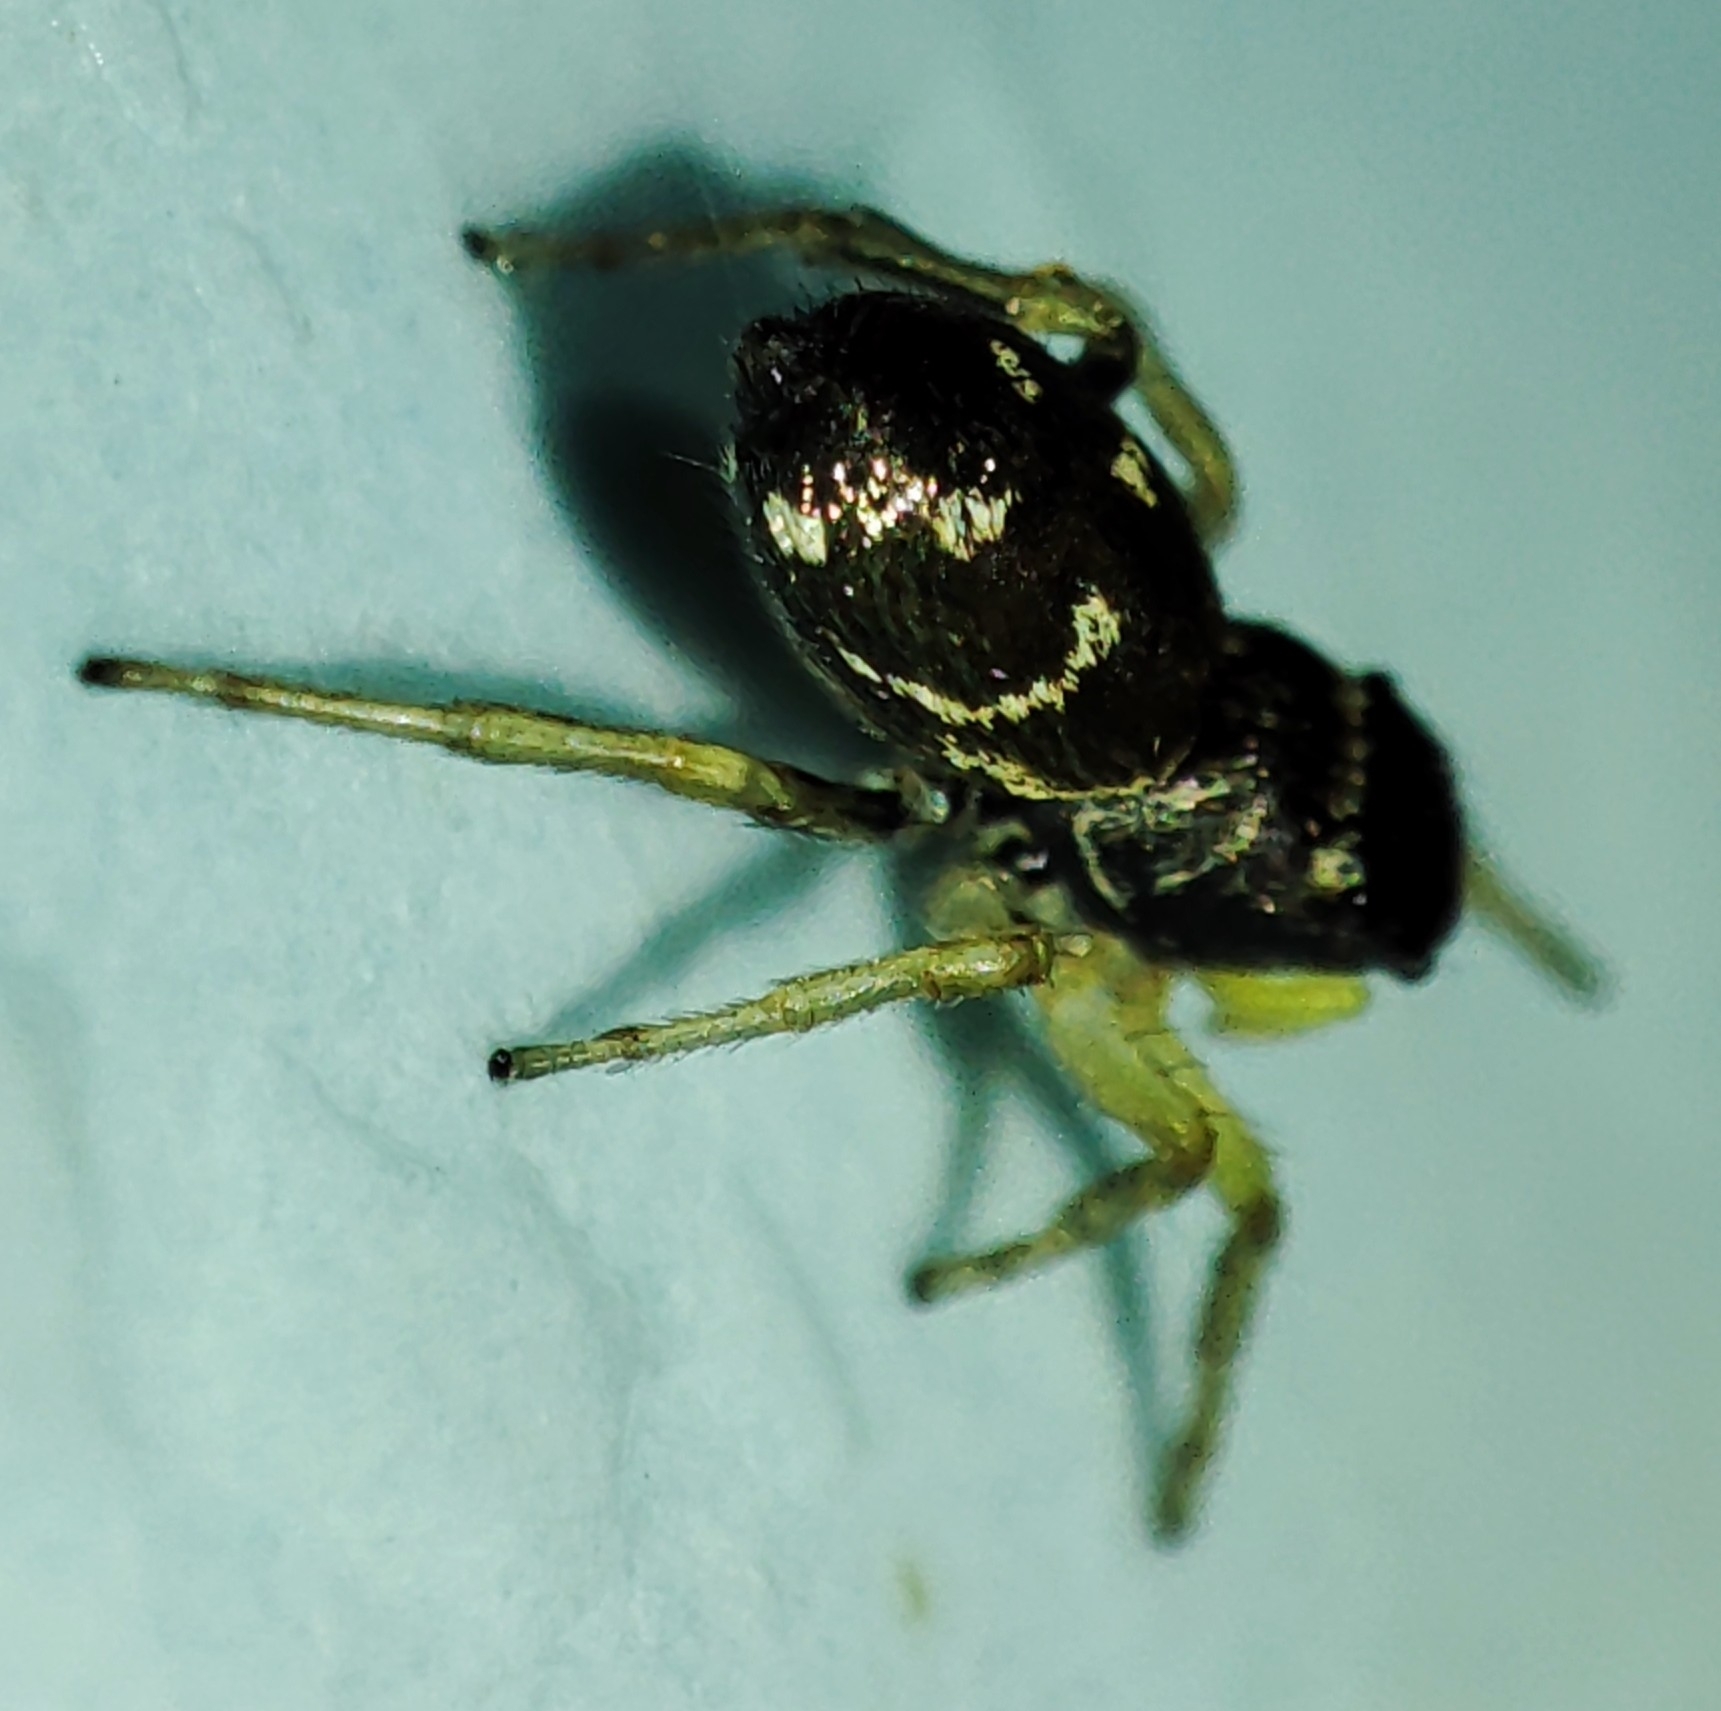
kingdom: Animalia
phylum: Arthropoda
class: Arachnida
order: Araneae
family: Salticidae
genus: Heliophanus
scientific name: Heliophanus cupreus
